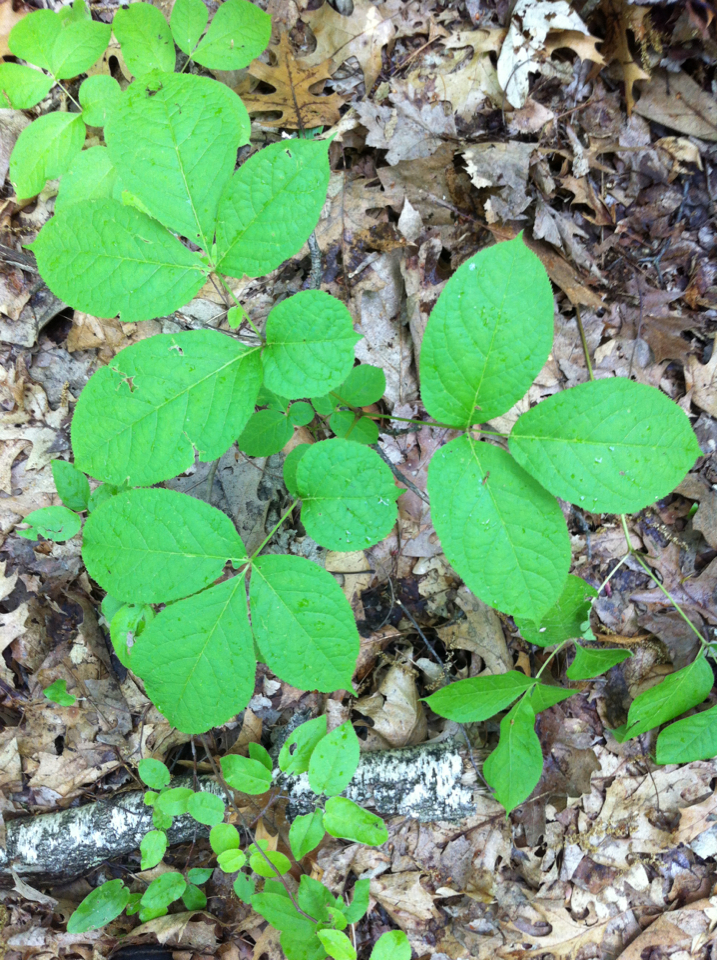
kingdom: Plantae
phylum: Tracheophyta
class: Magnoliopsida
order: Apiales
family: Araliaceae
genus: Aralia
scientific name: Aralia nudicaulis
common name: Wild sarsaparilla
